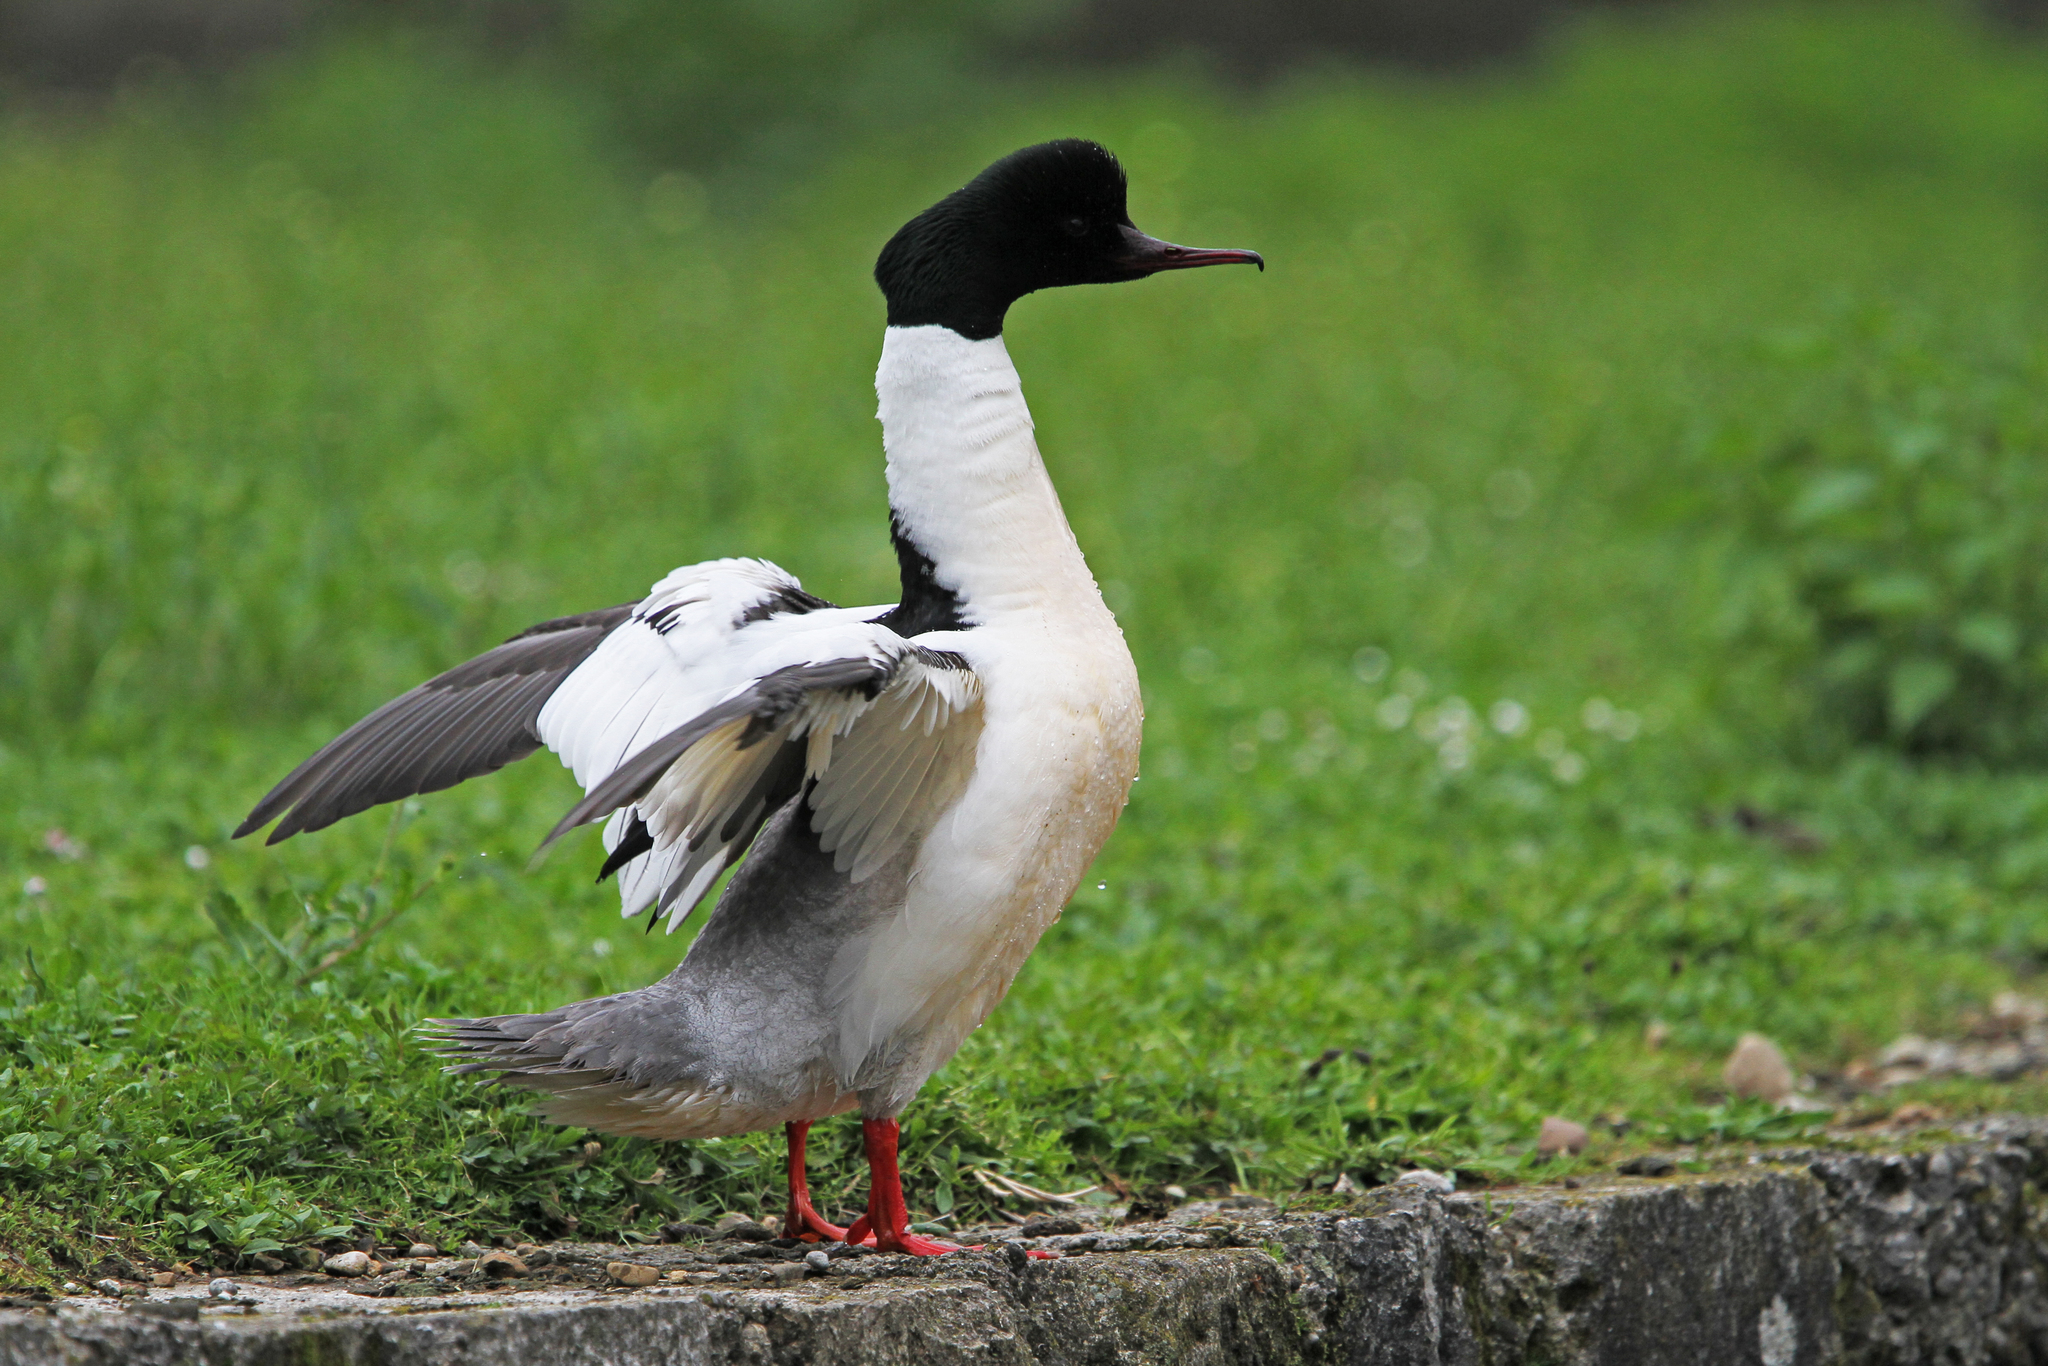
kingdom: Animalia
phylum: Chordata
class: Aves
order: Anseriformes
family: Anatidae
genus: Mergus
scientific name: Mergus merganser
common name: Common merganser
